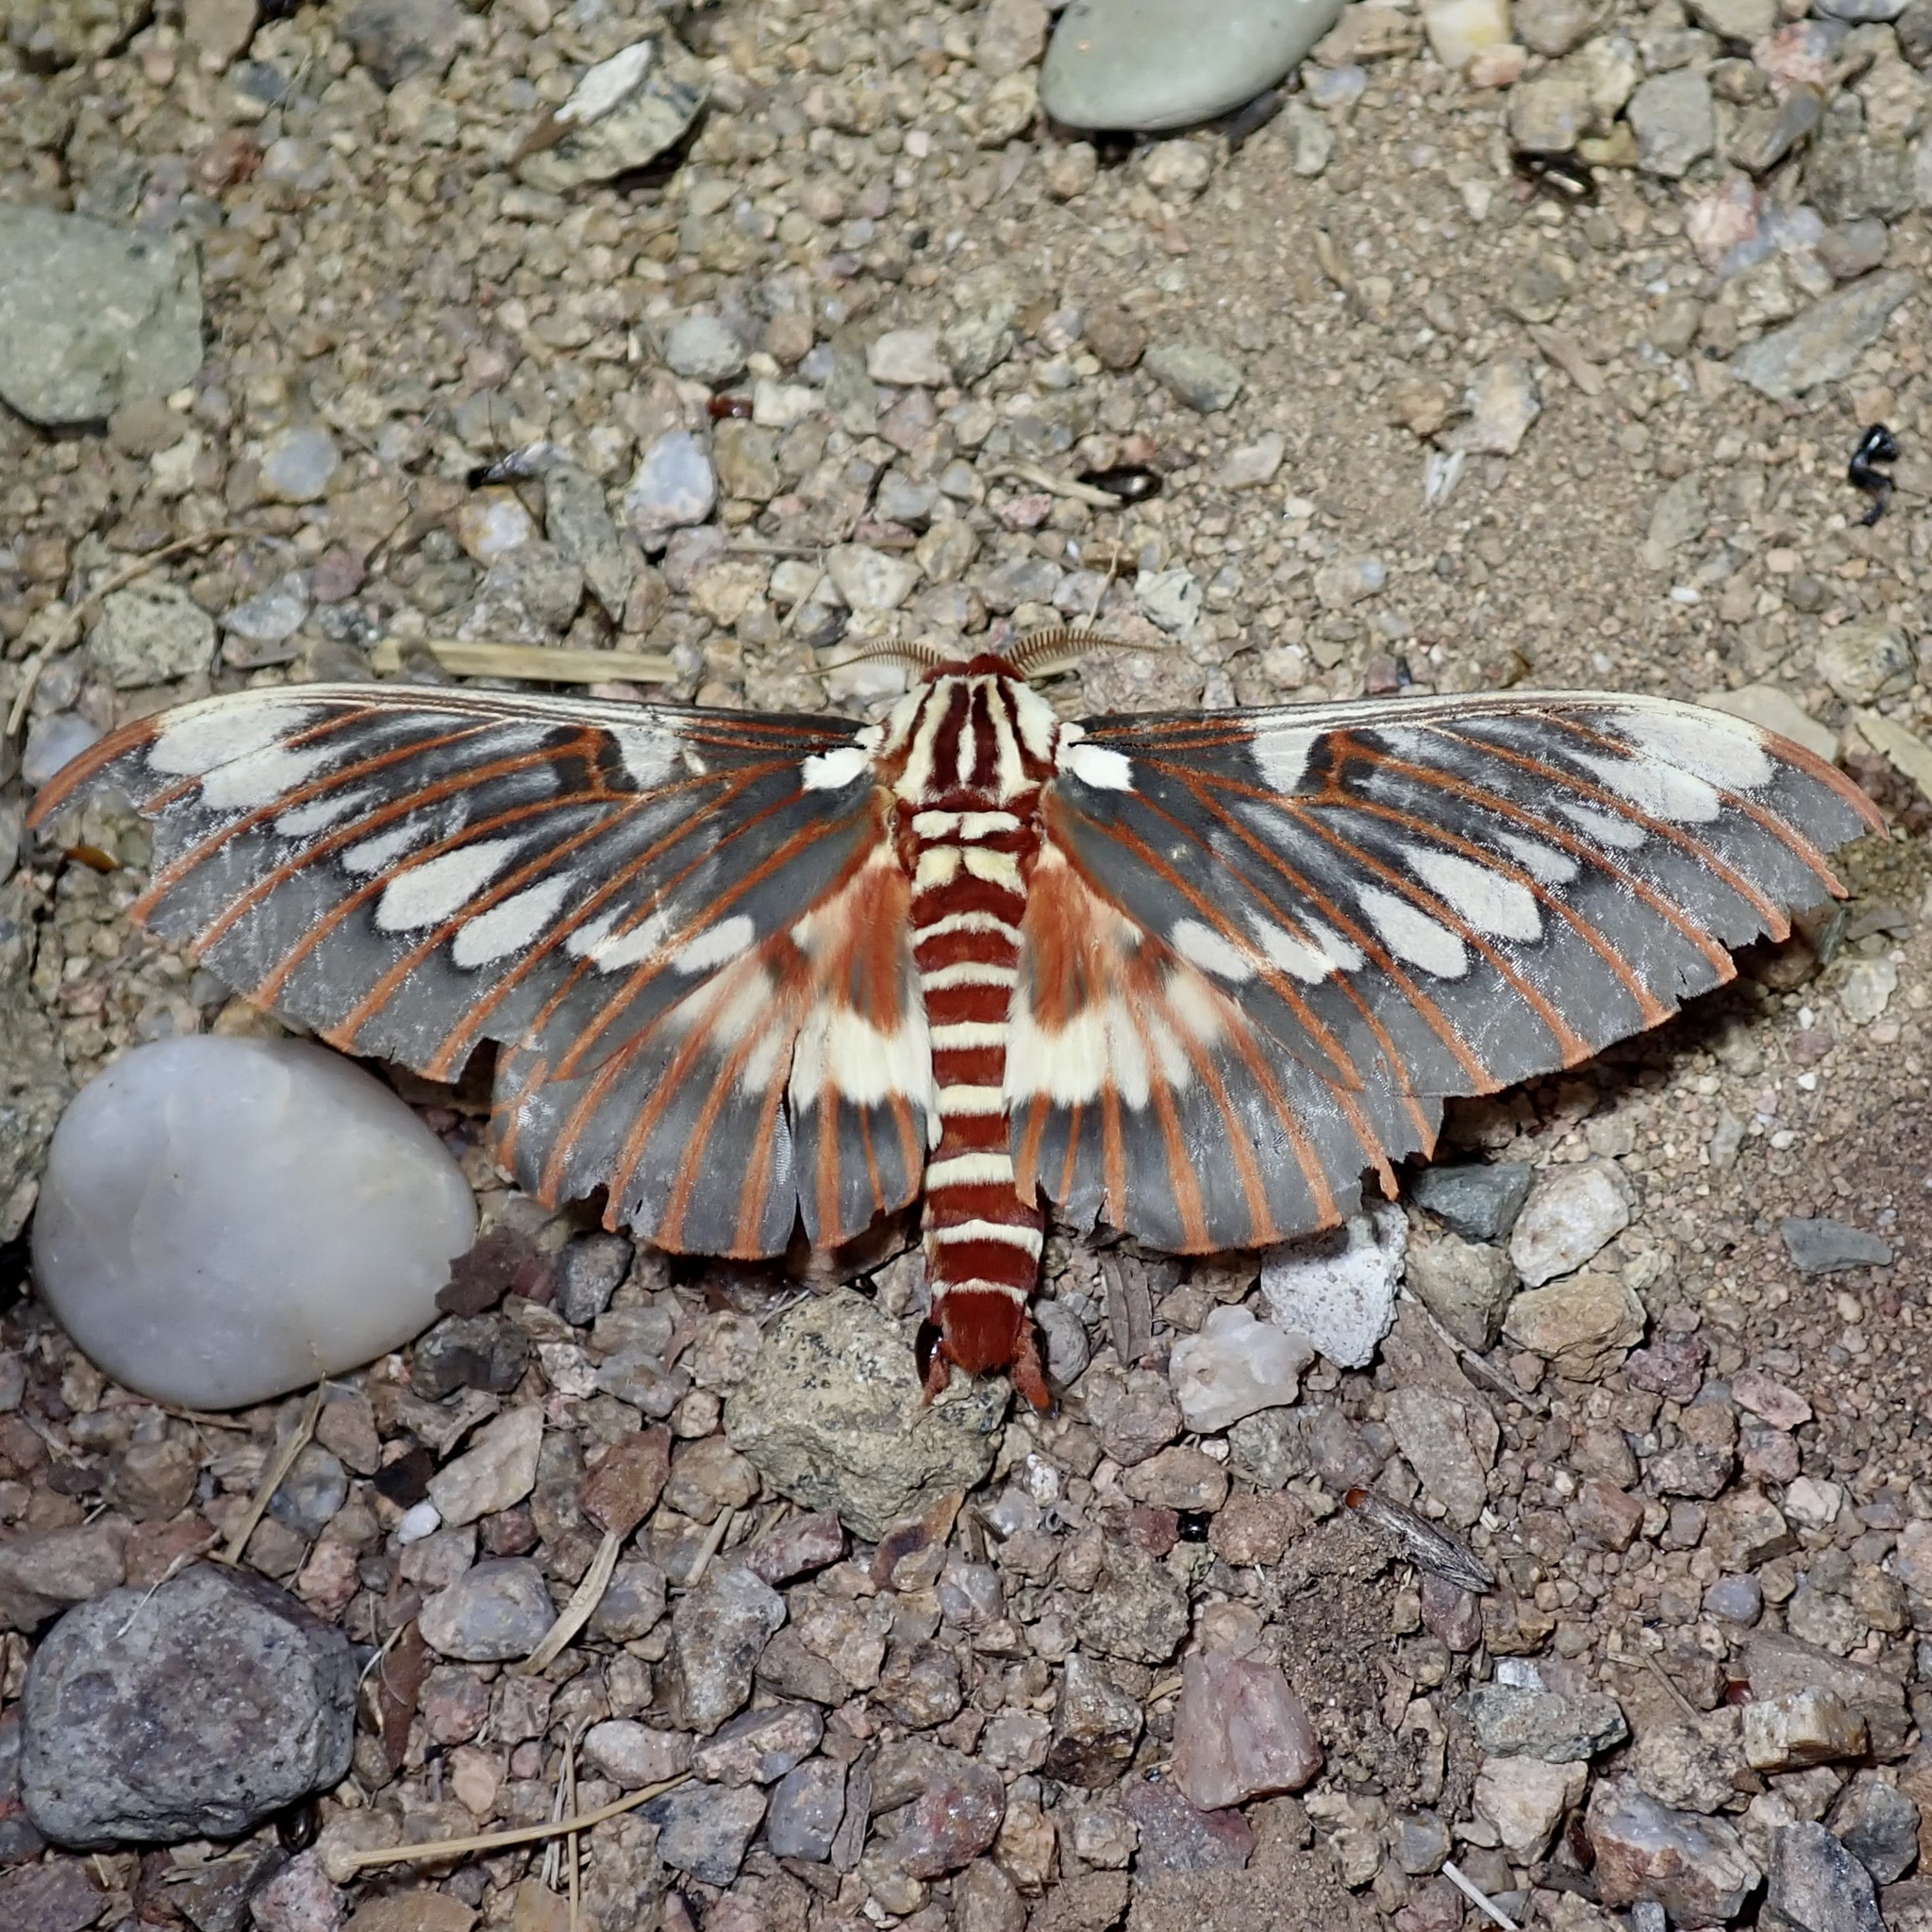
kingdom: Animalia
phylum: Arthropoda
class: Insecta
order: Lepidoptera
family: Saturniidae
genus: Citheronia
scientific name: Citheronia splendens
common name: Splendid royal moth
